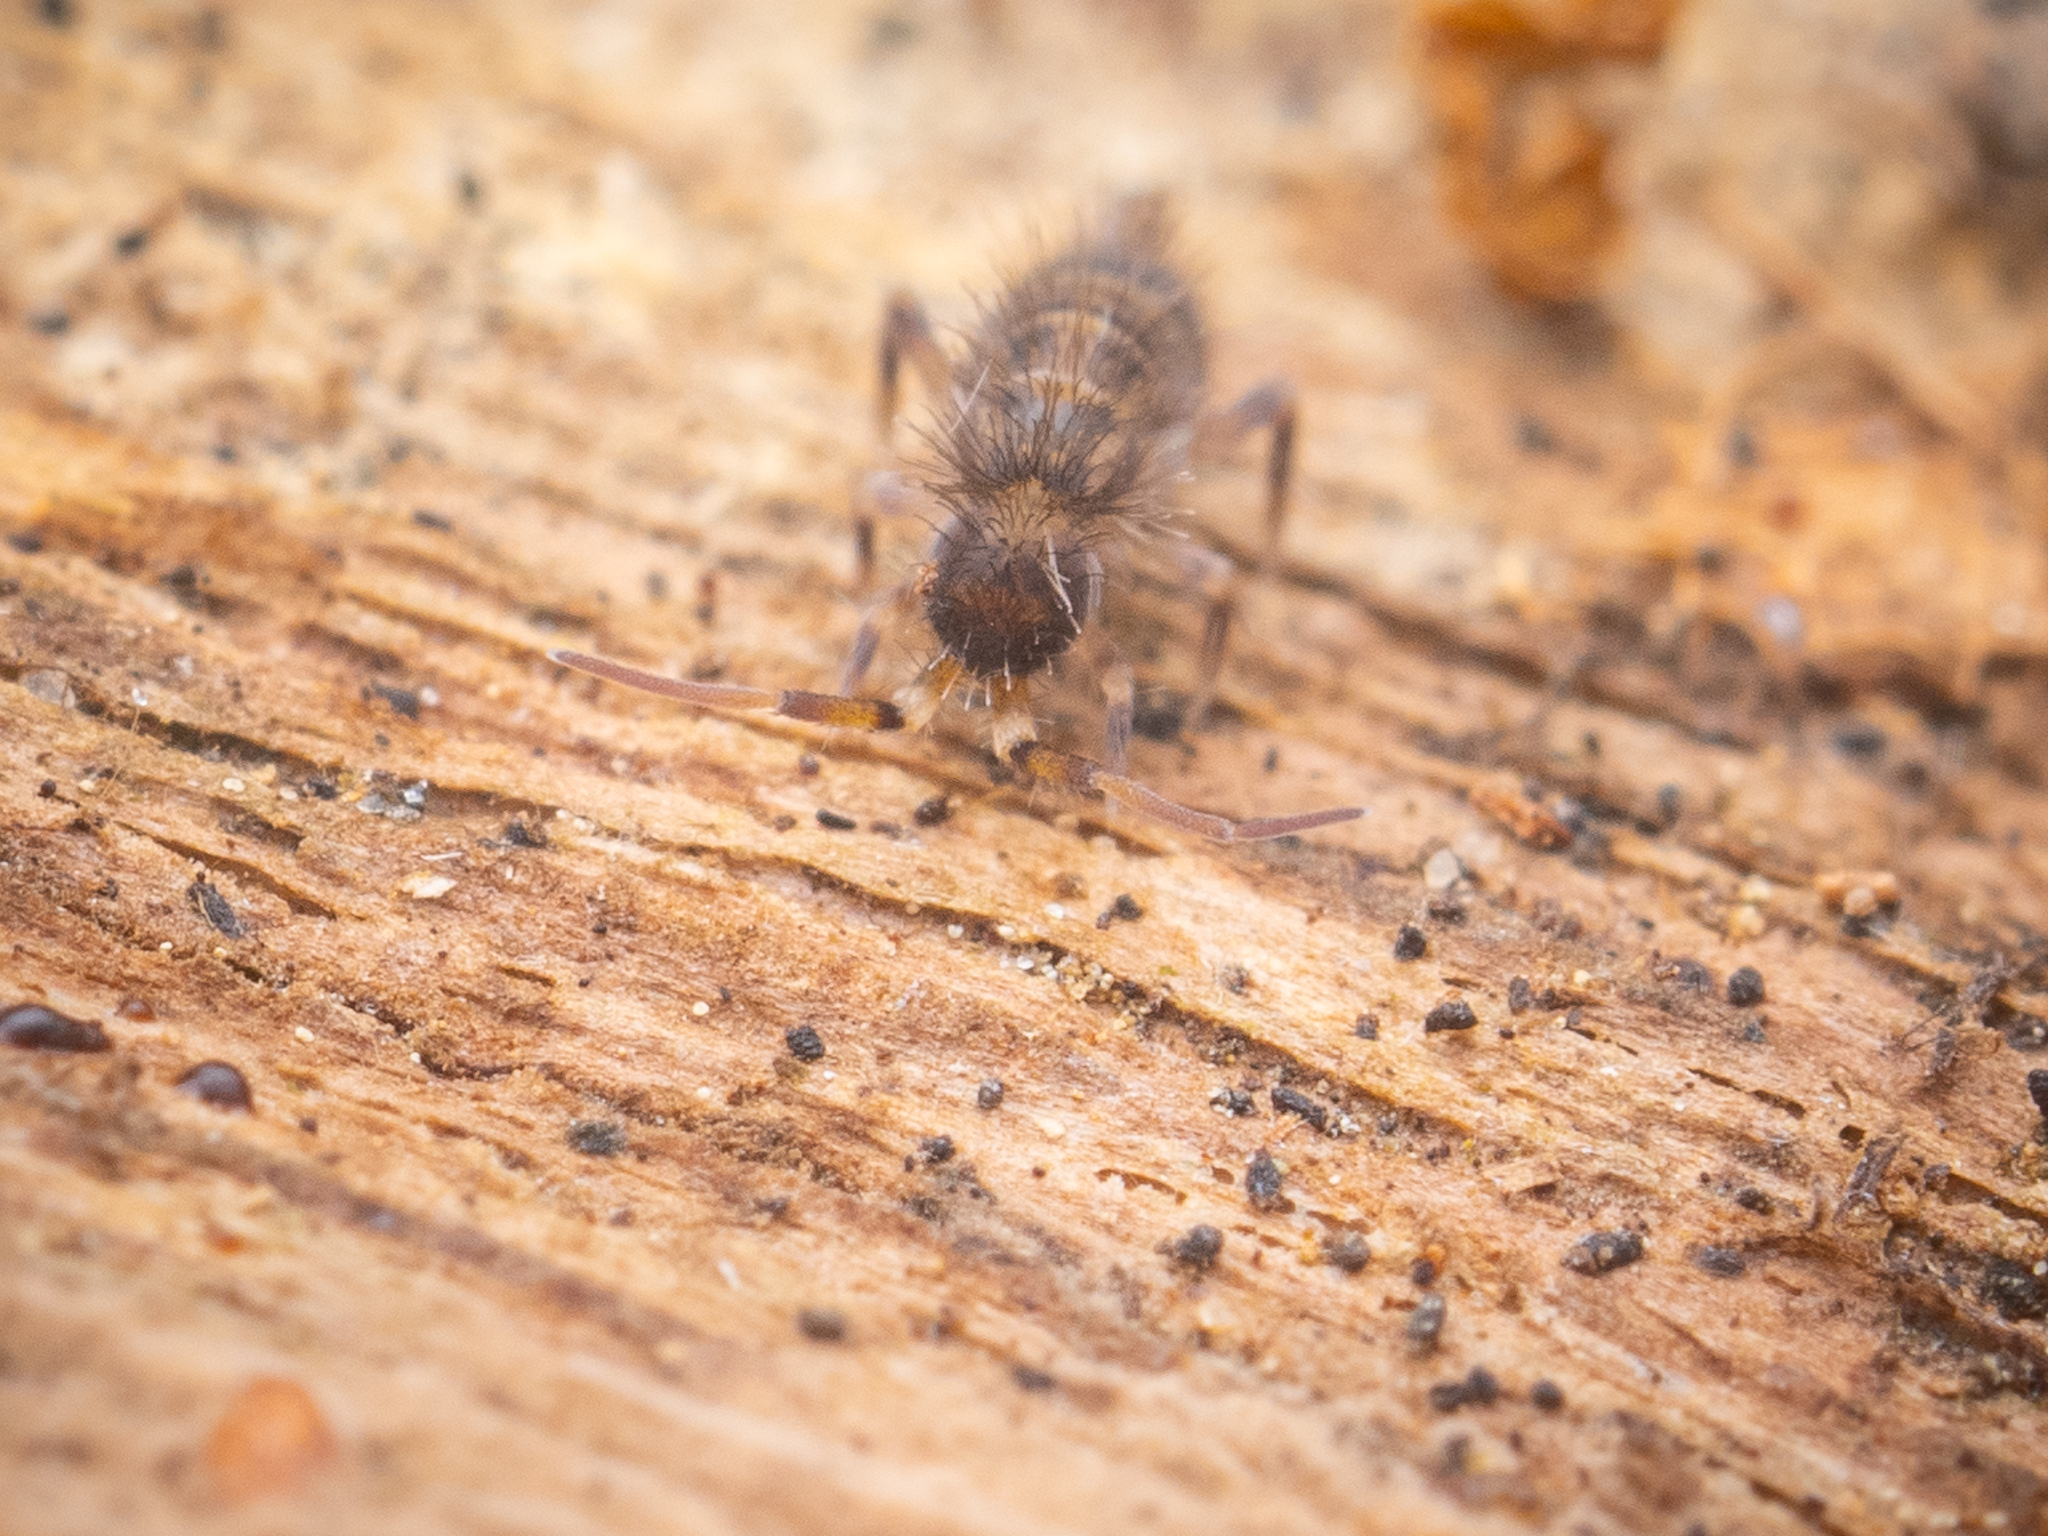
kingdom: Animalia
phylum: Arthropoda
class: Collembola
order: Entomobryomorpha
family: Orchesellidae
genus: Orchesella
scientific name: Orchesella cincta
